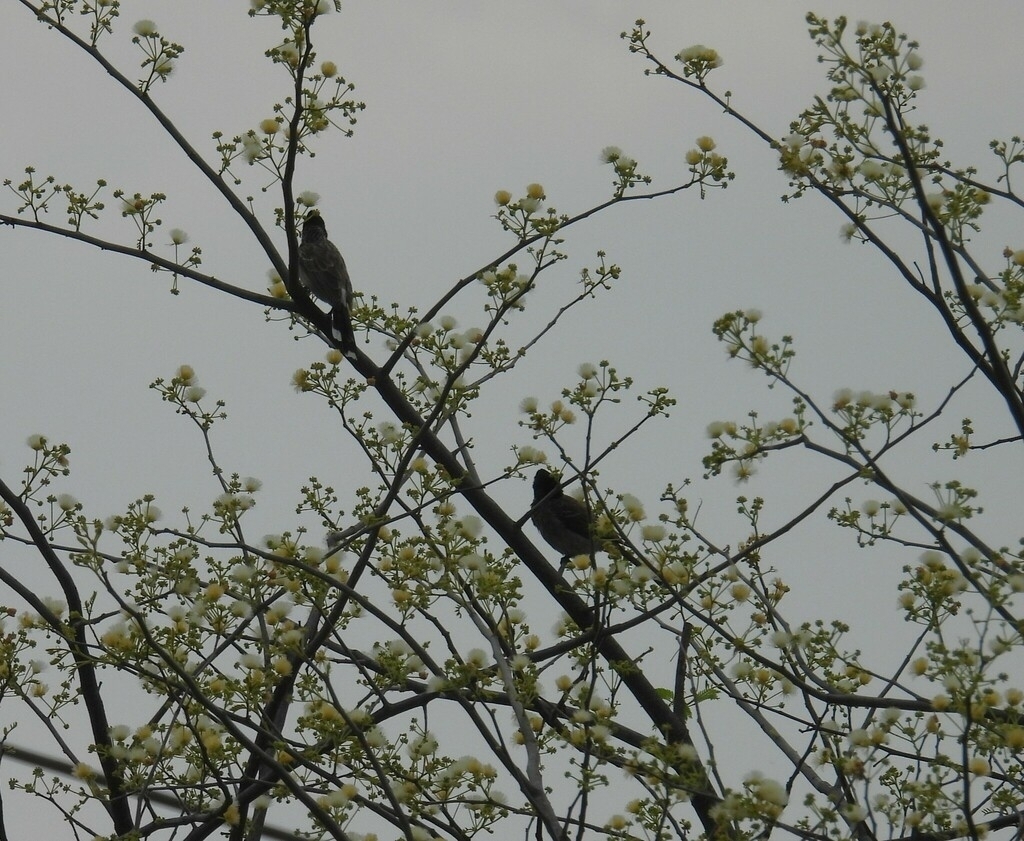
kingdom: Animalia
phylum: Chordata
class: Aves
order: Passeriformes
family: Pycnonotidae
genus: Pycnonotus
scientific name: Pycnonotus cafer
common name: Red-vented bulbul
